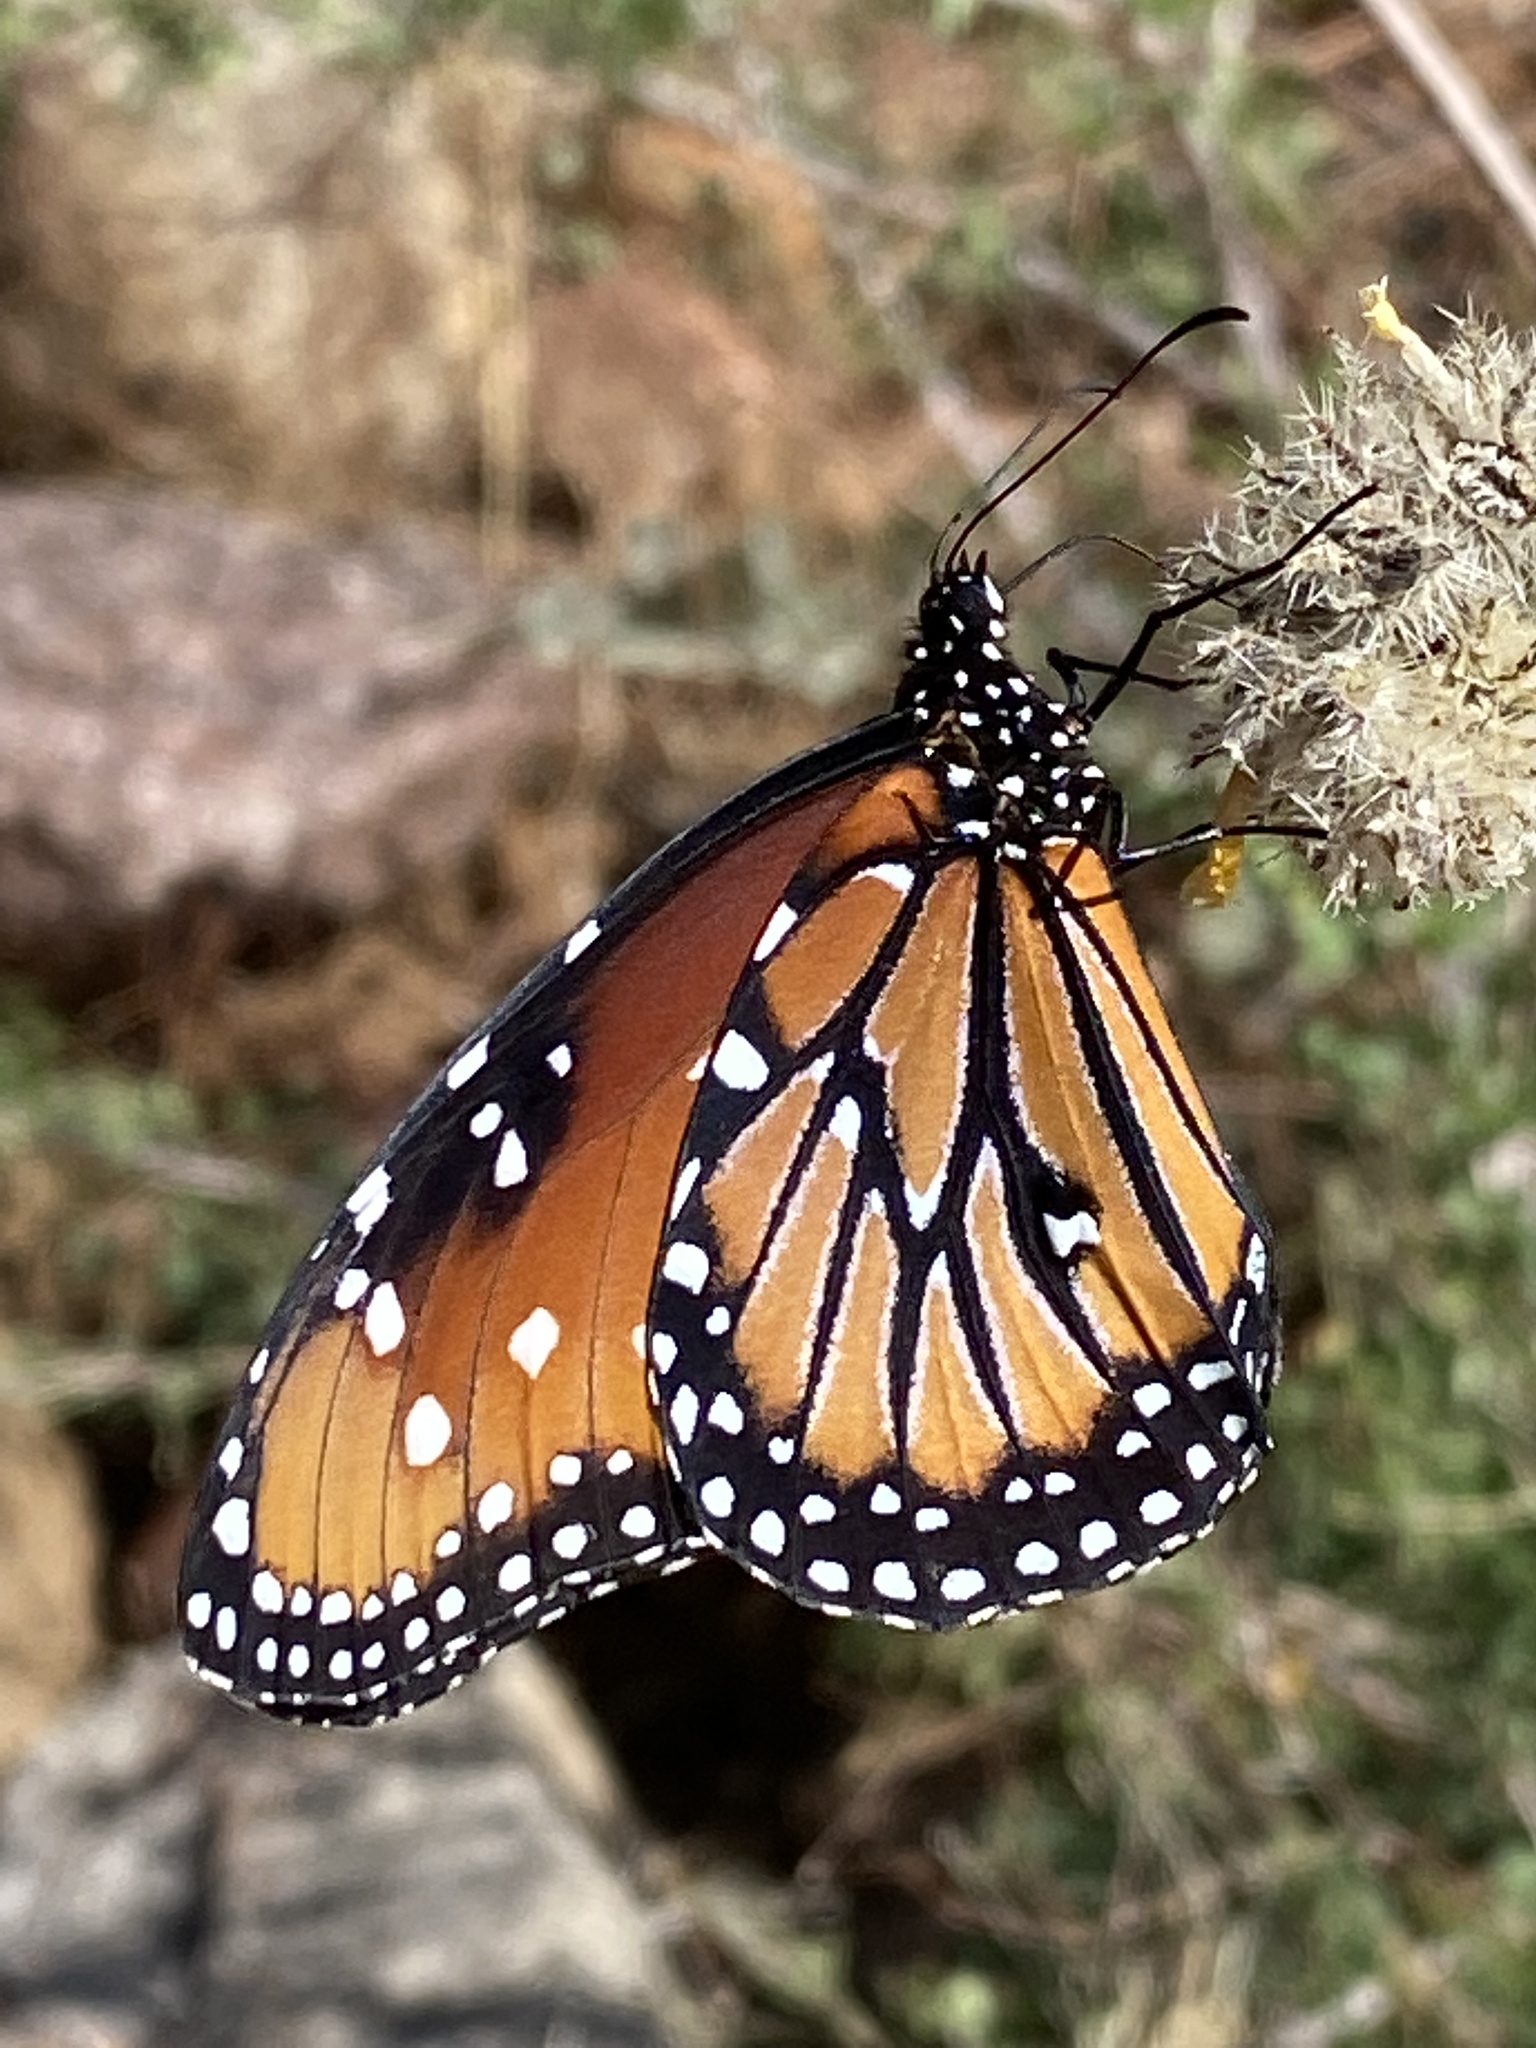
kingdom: Animalia
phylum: Arthropoda
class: Insecta
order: Lepidoptera
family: Nymphalidae
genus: Danaus
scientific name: Danaus gilippus
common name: Queen
